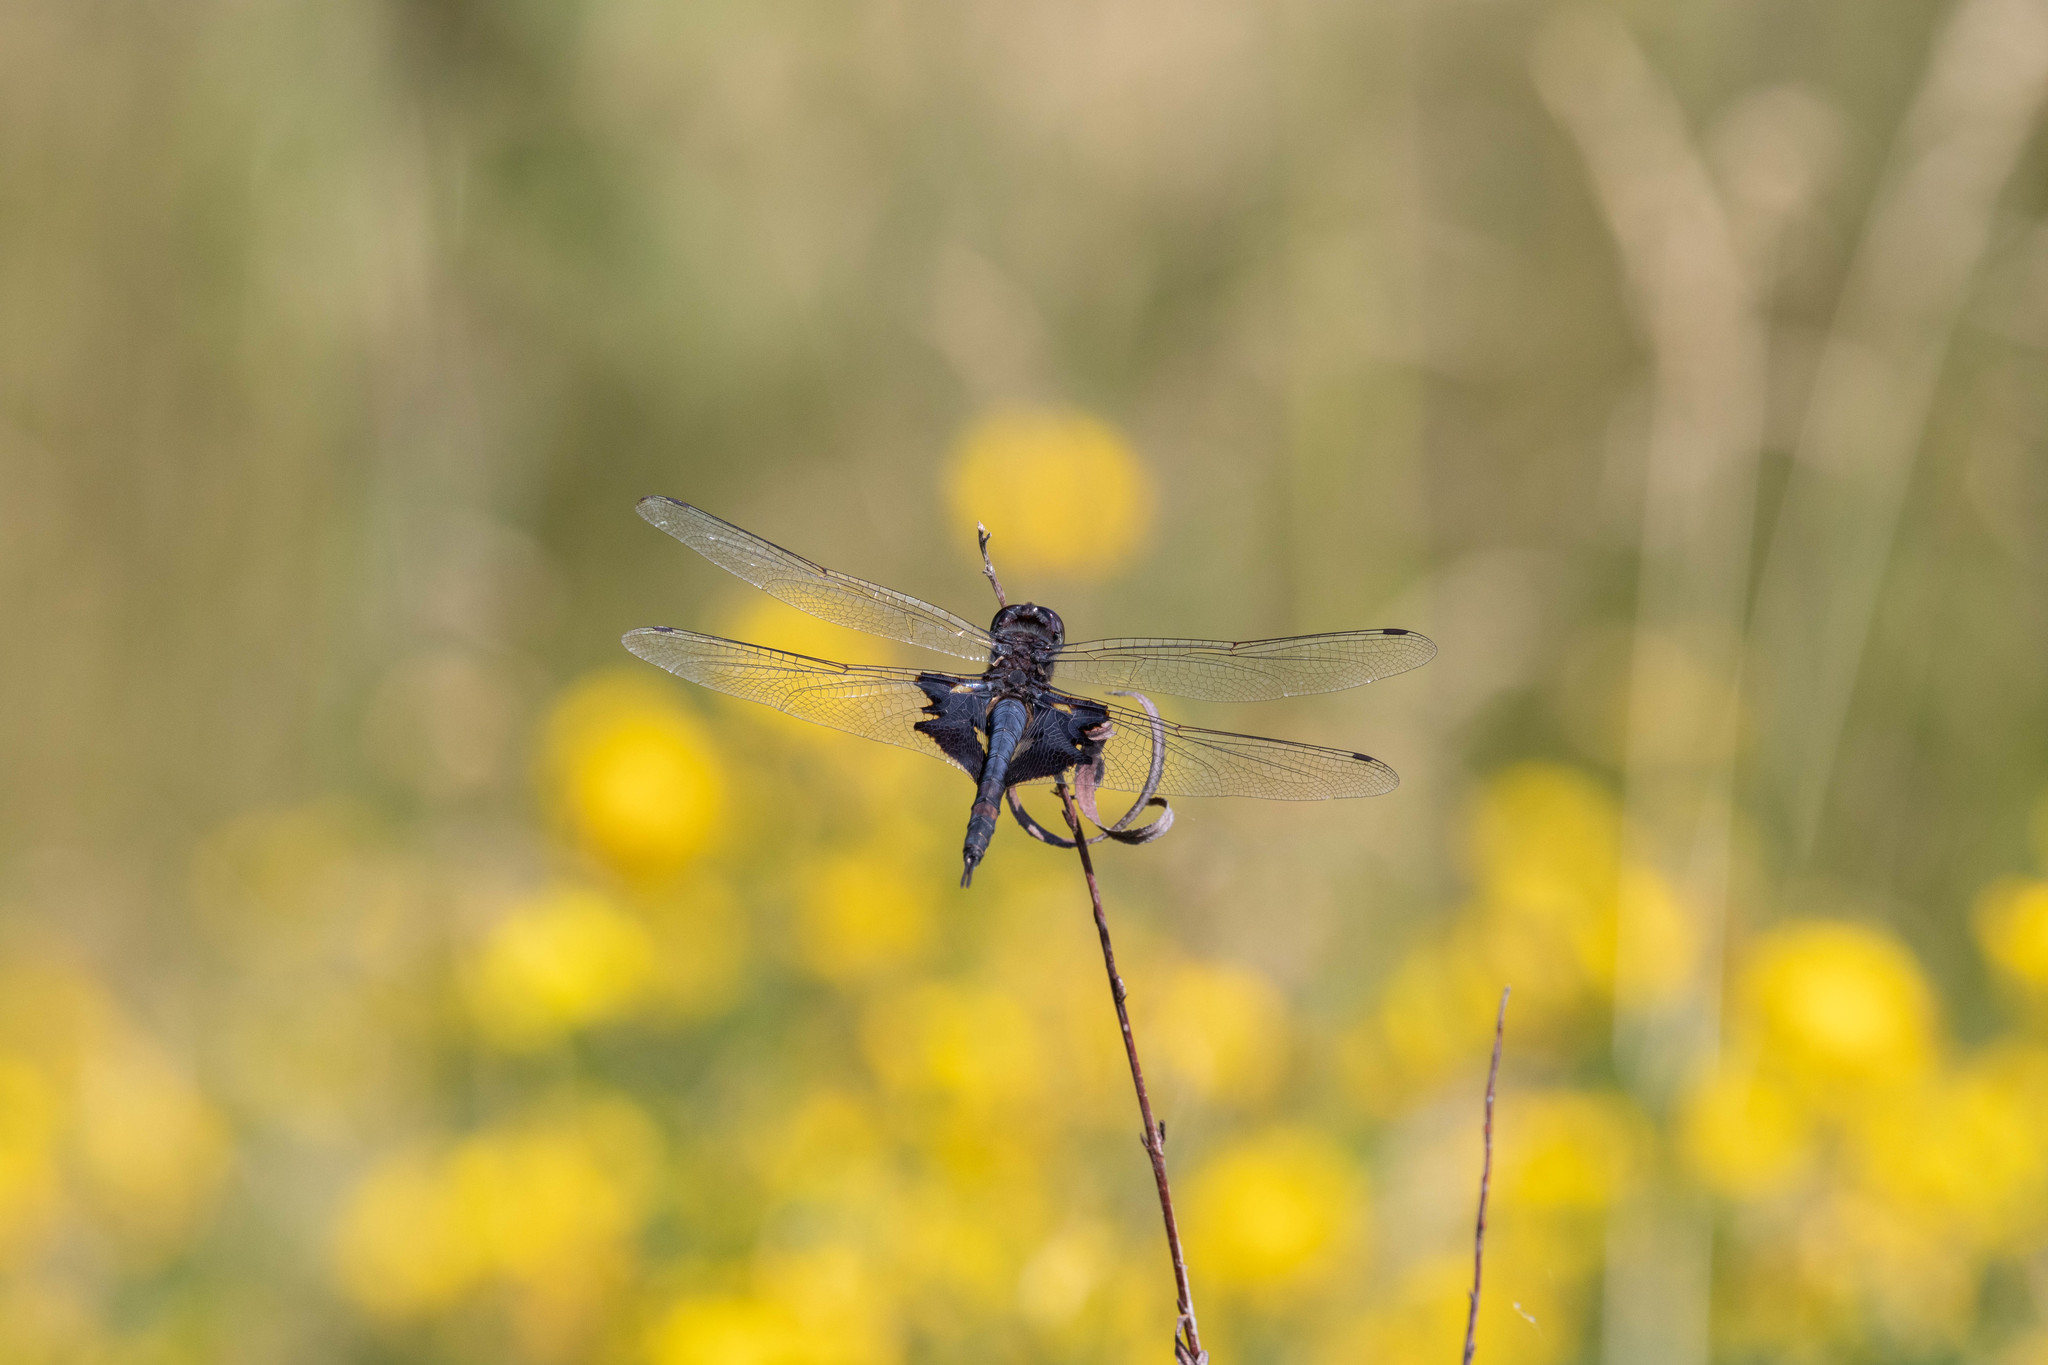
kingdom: Animalia
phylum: Arthropoda
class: Insecta
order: Odonata
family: Libellulidae
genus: Tramea
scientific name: Tramea lacerata
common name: Black saddlebags
